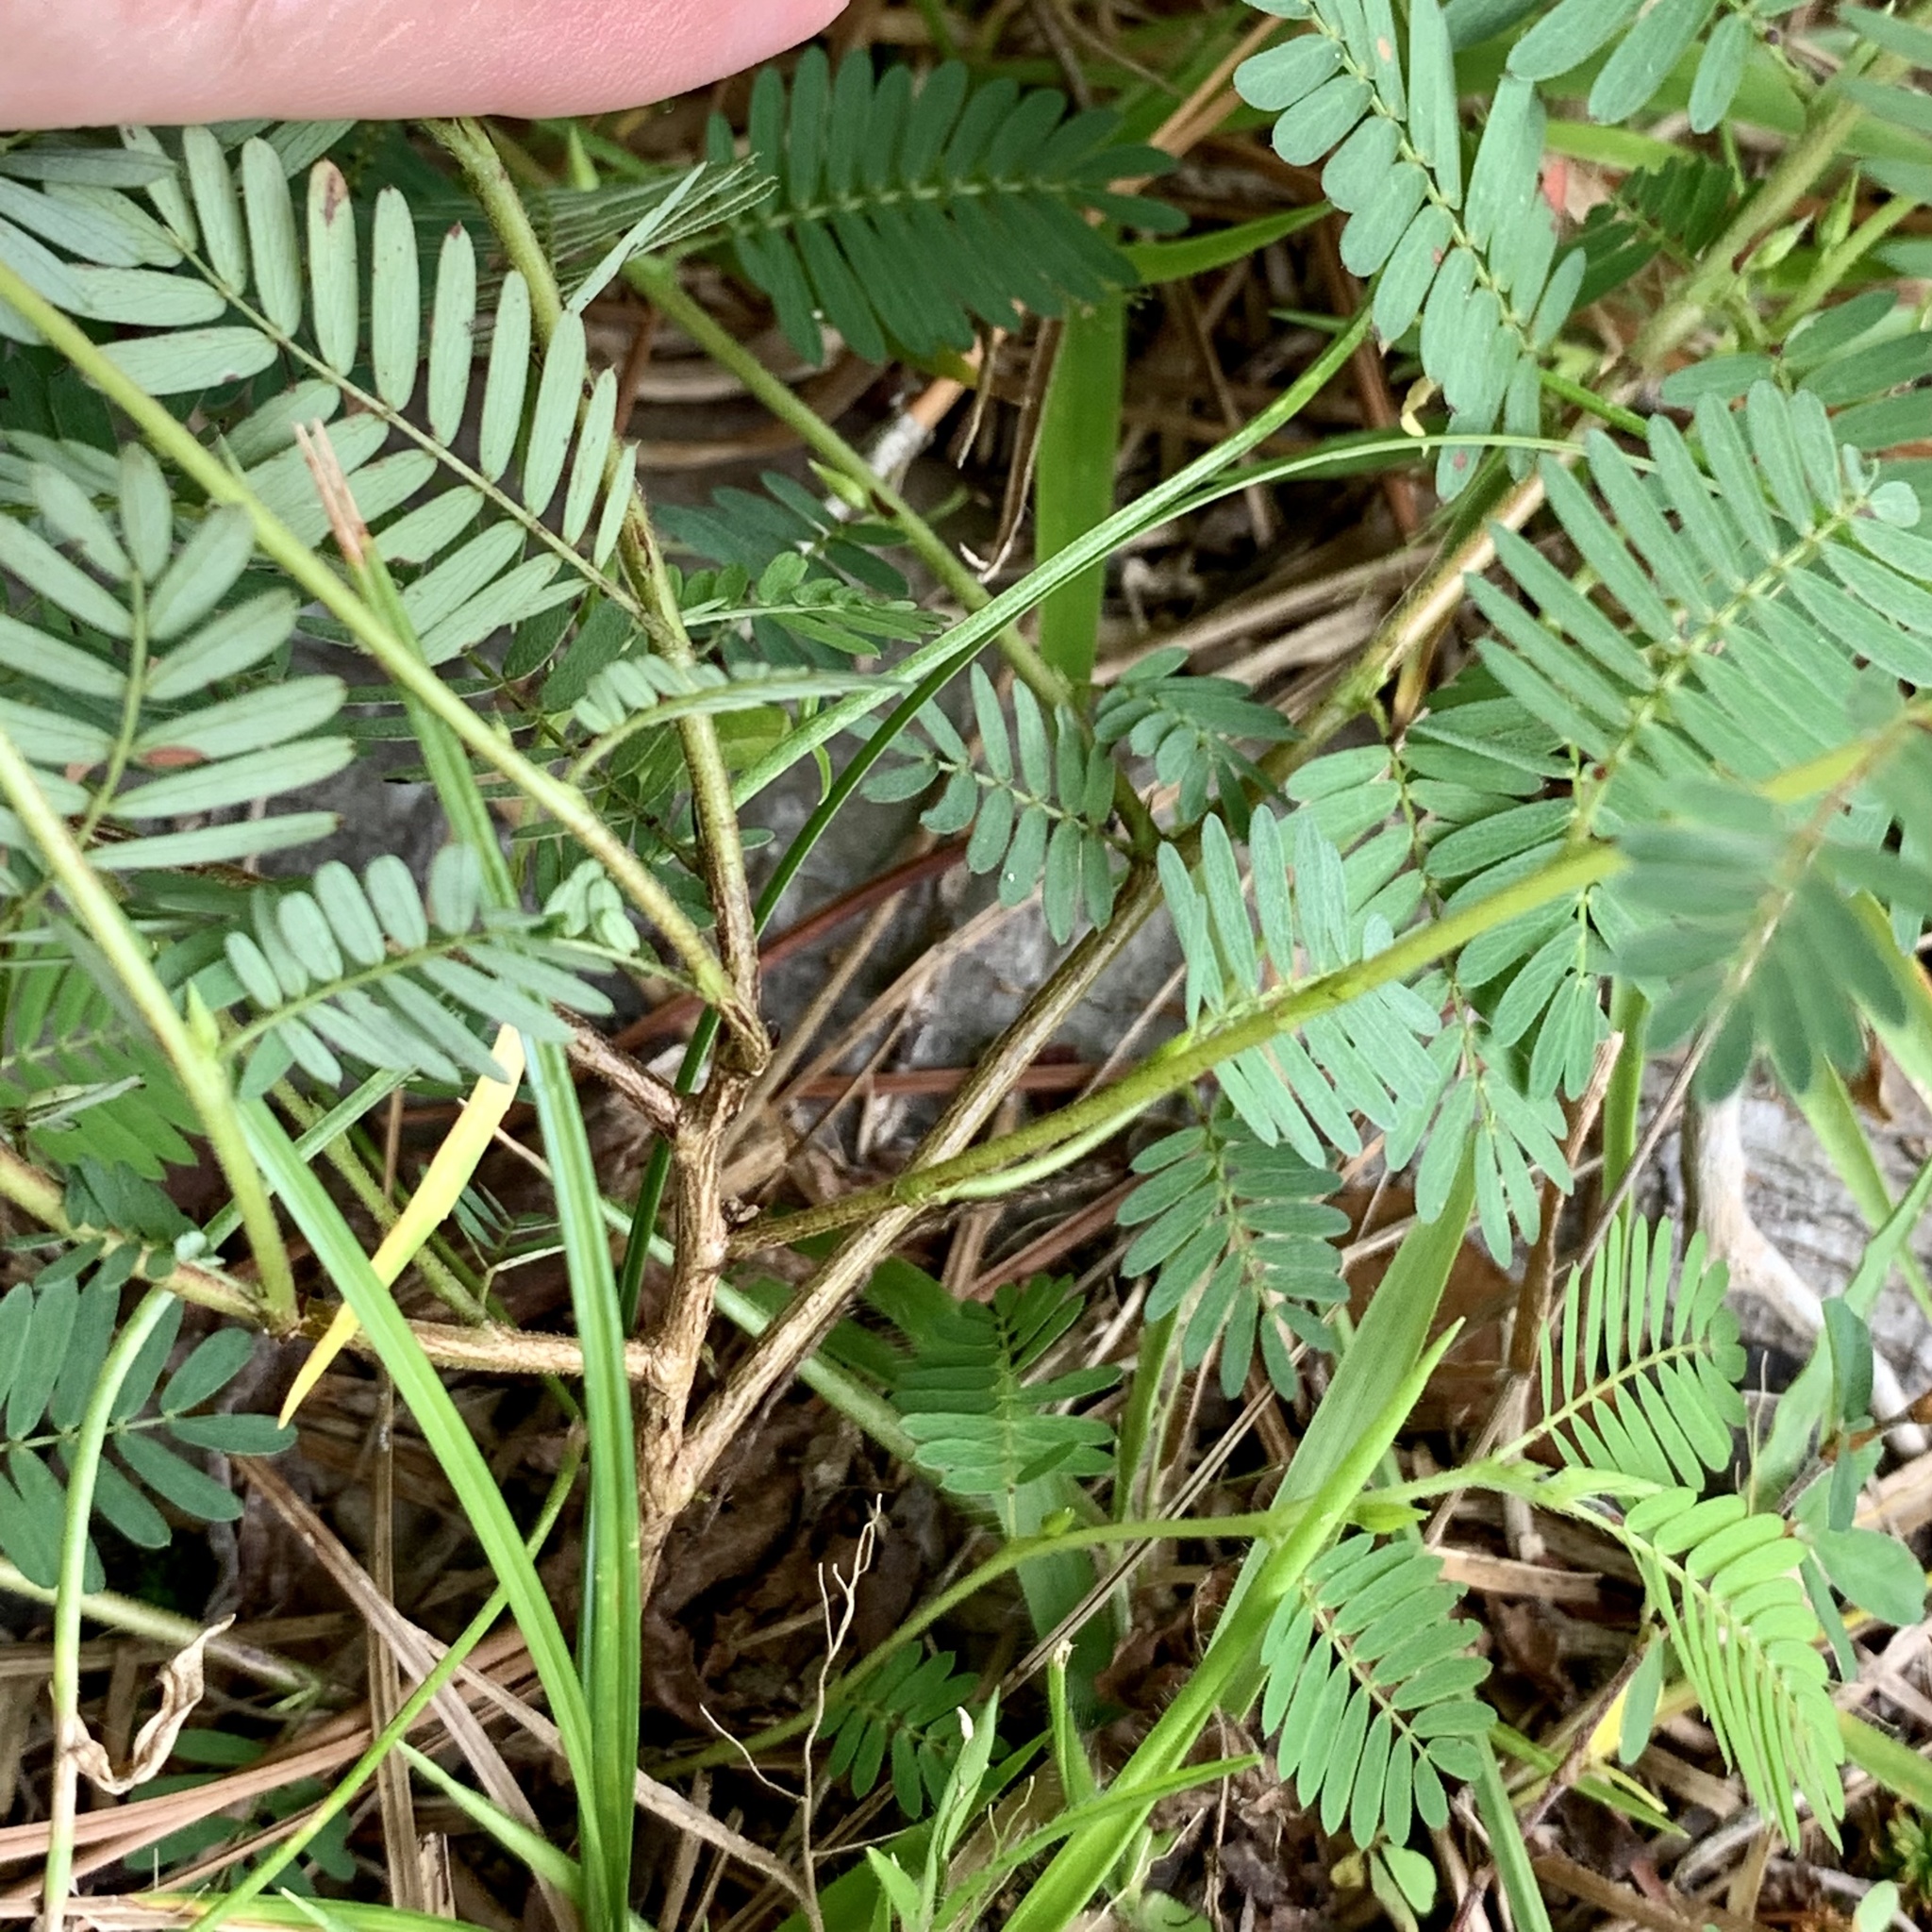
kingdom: Plantae
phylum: Tracheophyta
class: Magnoliopsida
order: Fabales
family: Fabaceae
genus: Chamaecrista
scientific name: Chamaecrista nictitans
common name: Sensitive cassia
